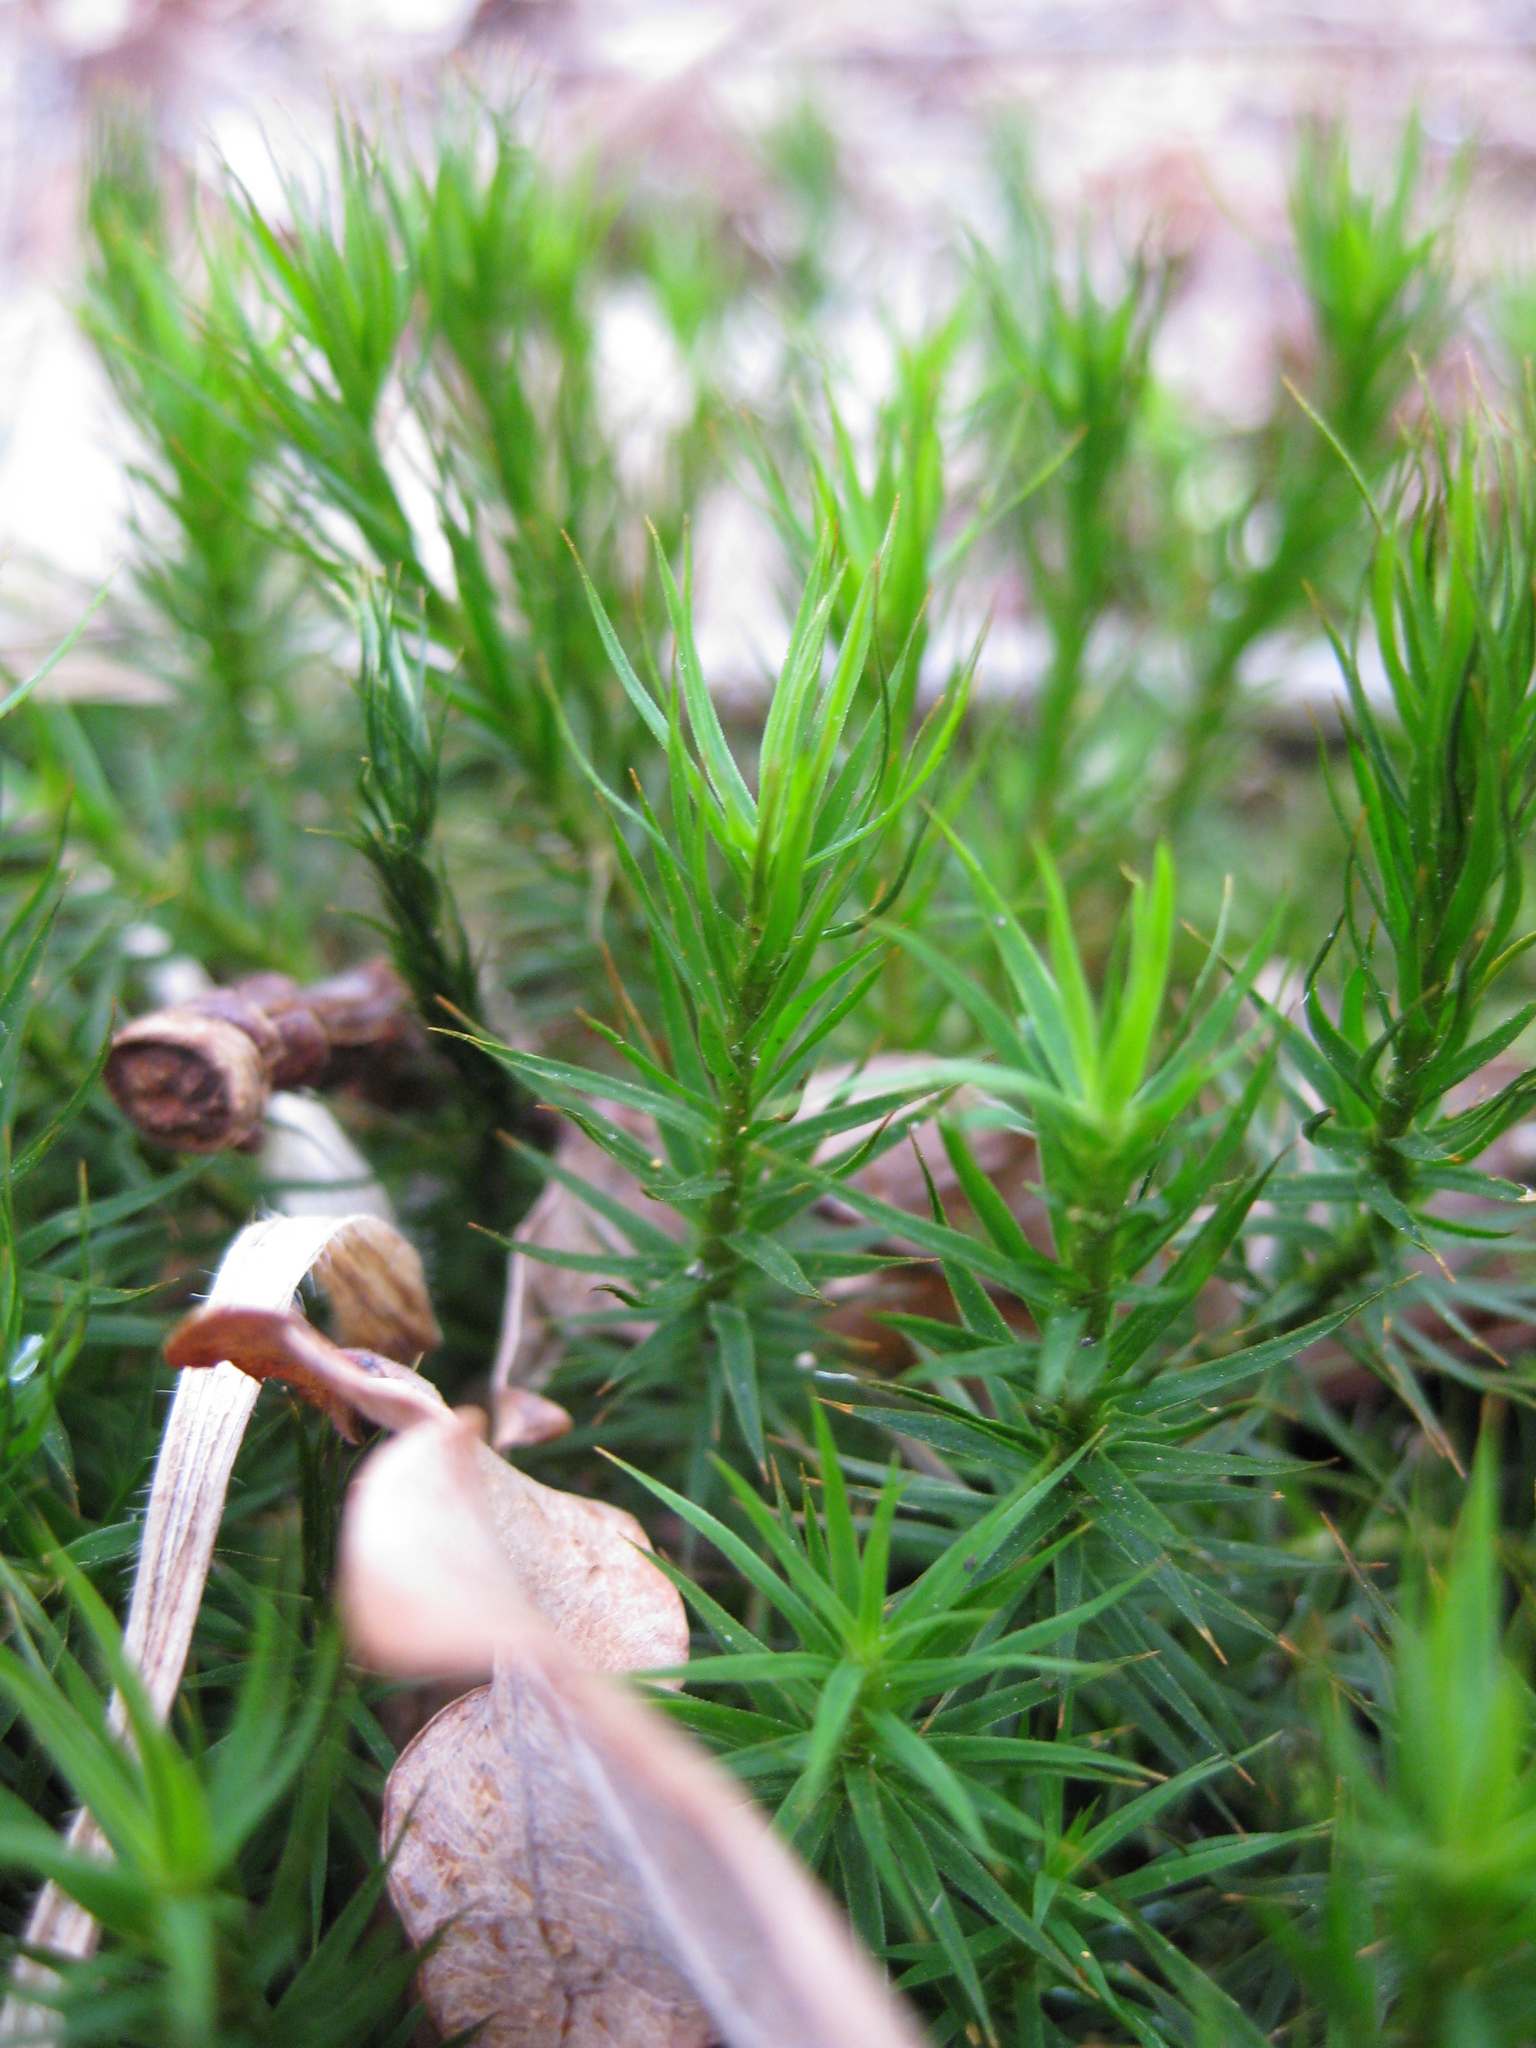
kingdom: Plantae
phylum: Bryophyta
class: Polytrichopsida
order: Polytrichales
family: Polytrichaceae
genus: Polytrichum
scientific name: Polytrichum formosum
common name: Bank haircap moss
